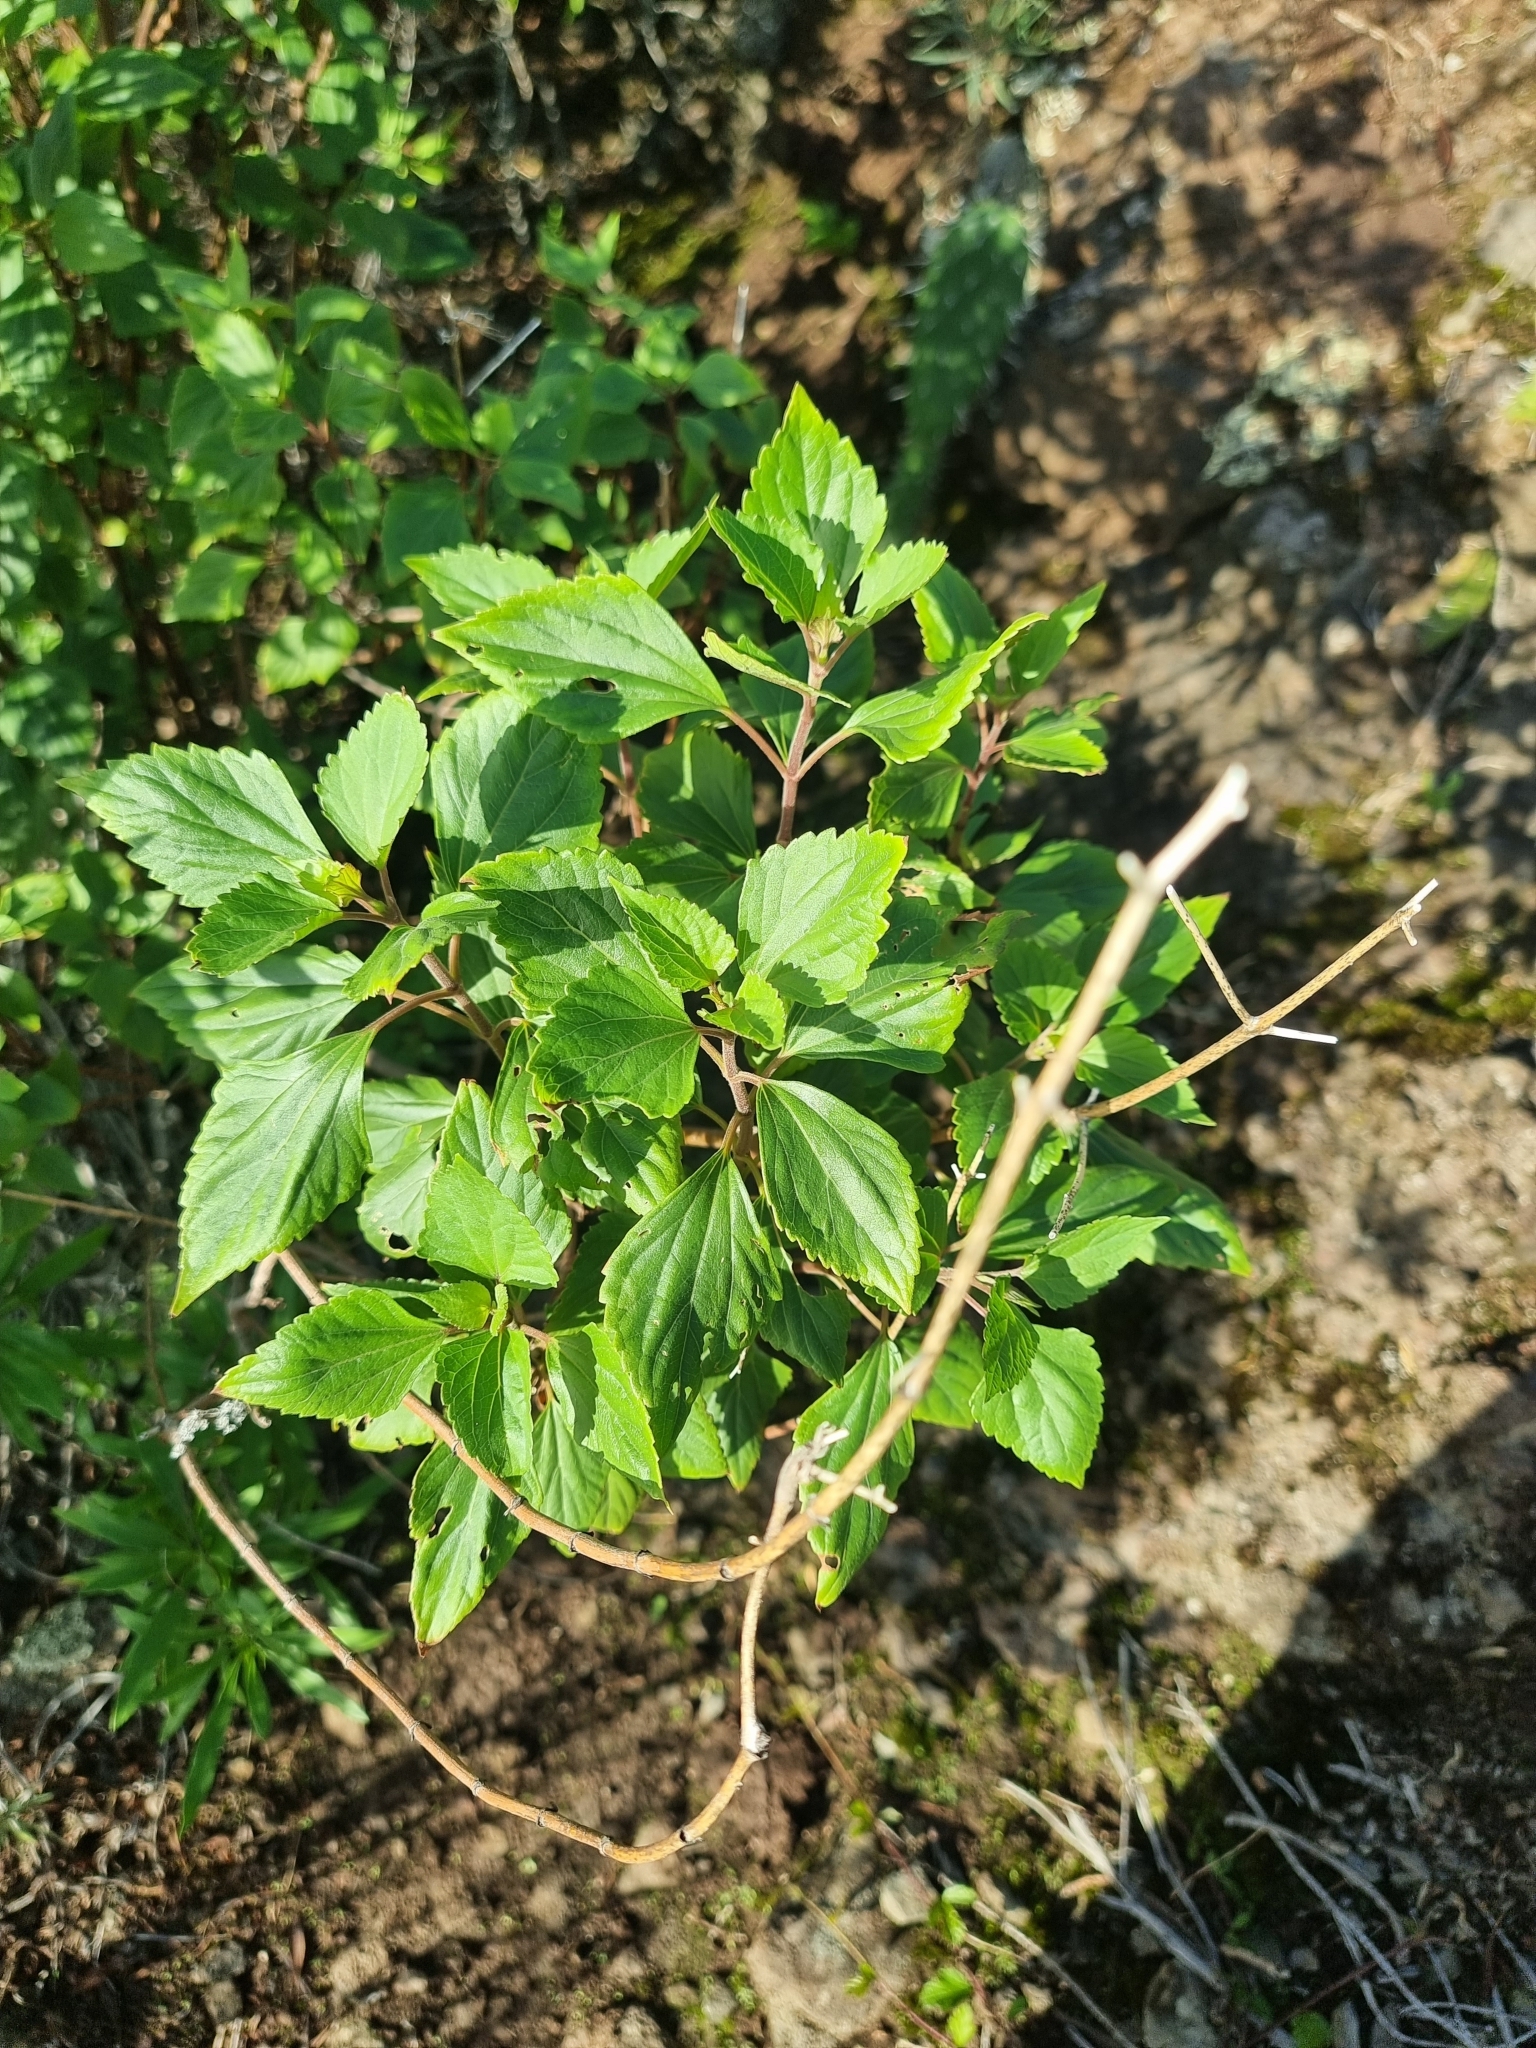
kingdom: Plantae
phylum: Tracheophyta
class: Magnoliopsida
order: Asterales
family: Asteraceae
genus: Ageratina
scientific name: Ageratina adenophora
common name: Sticky snakeroot
